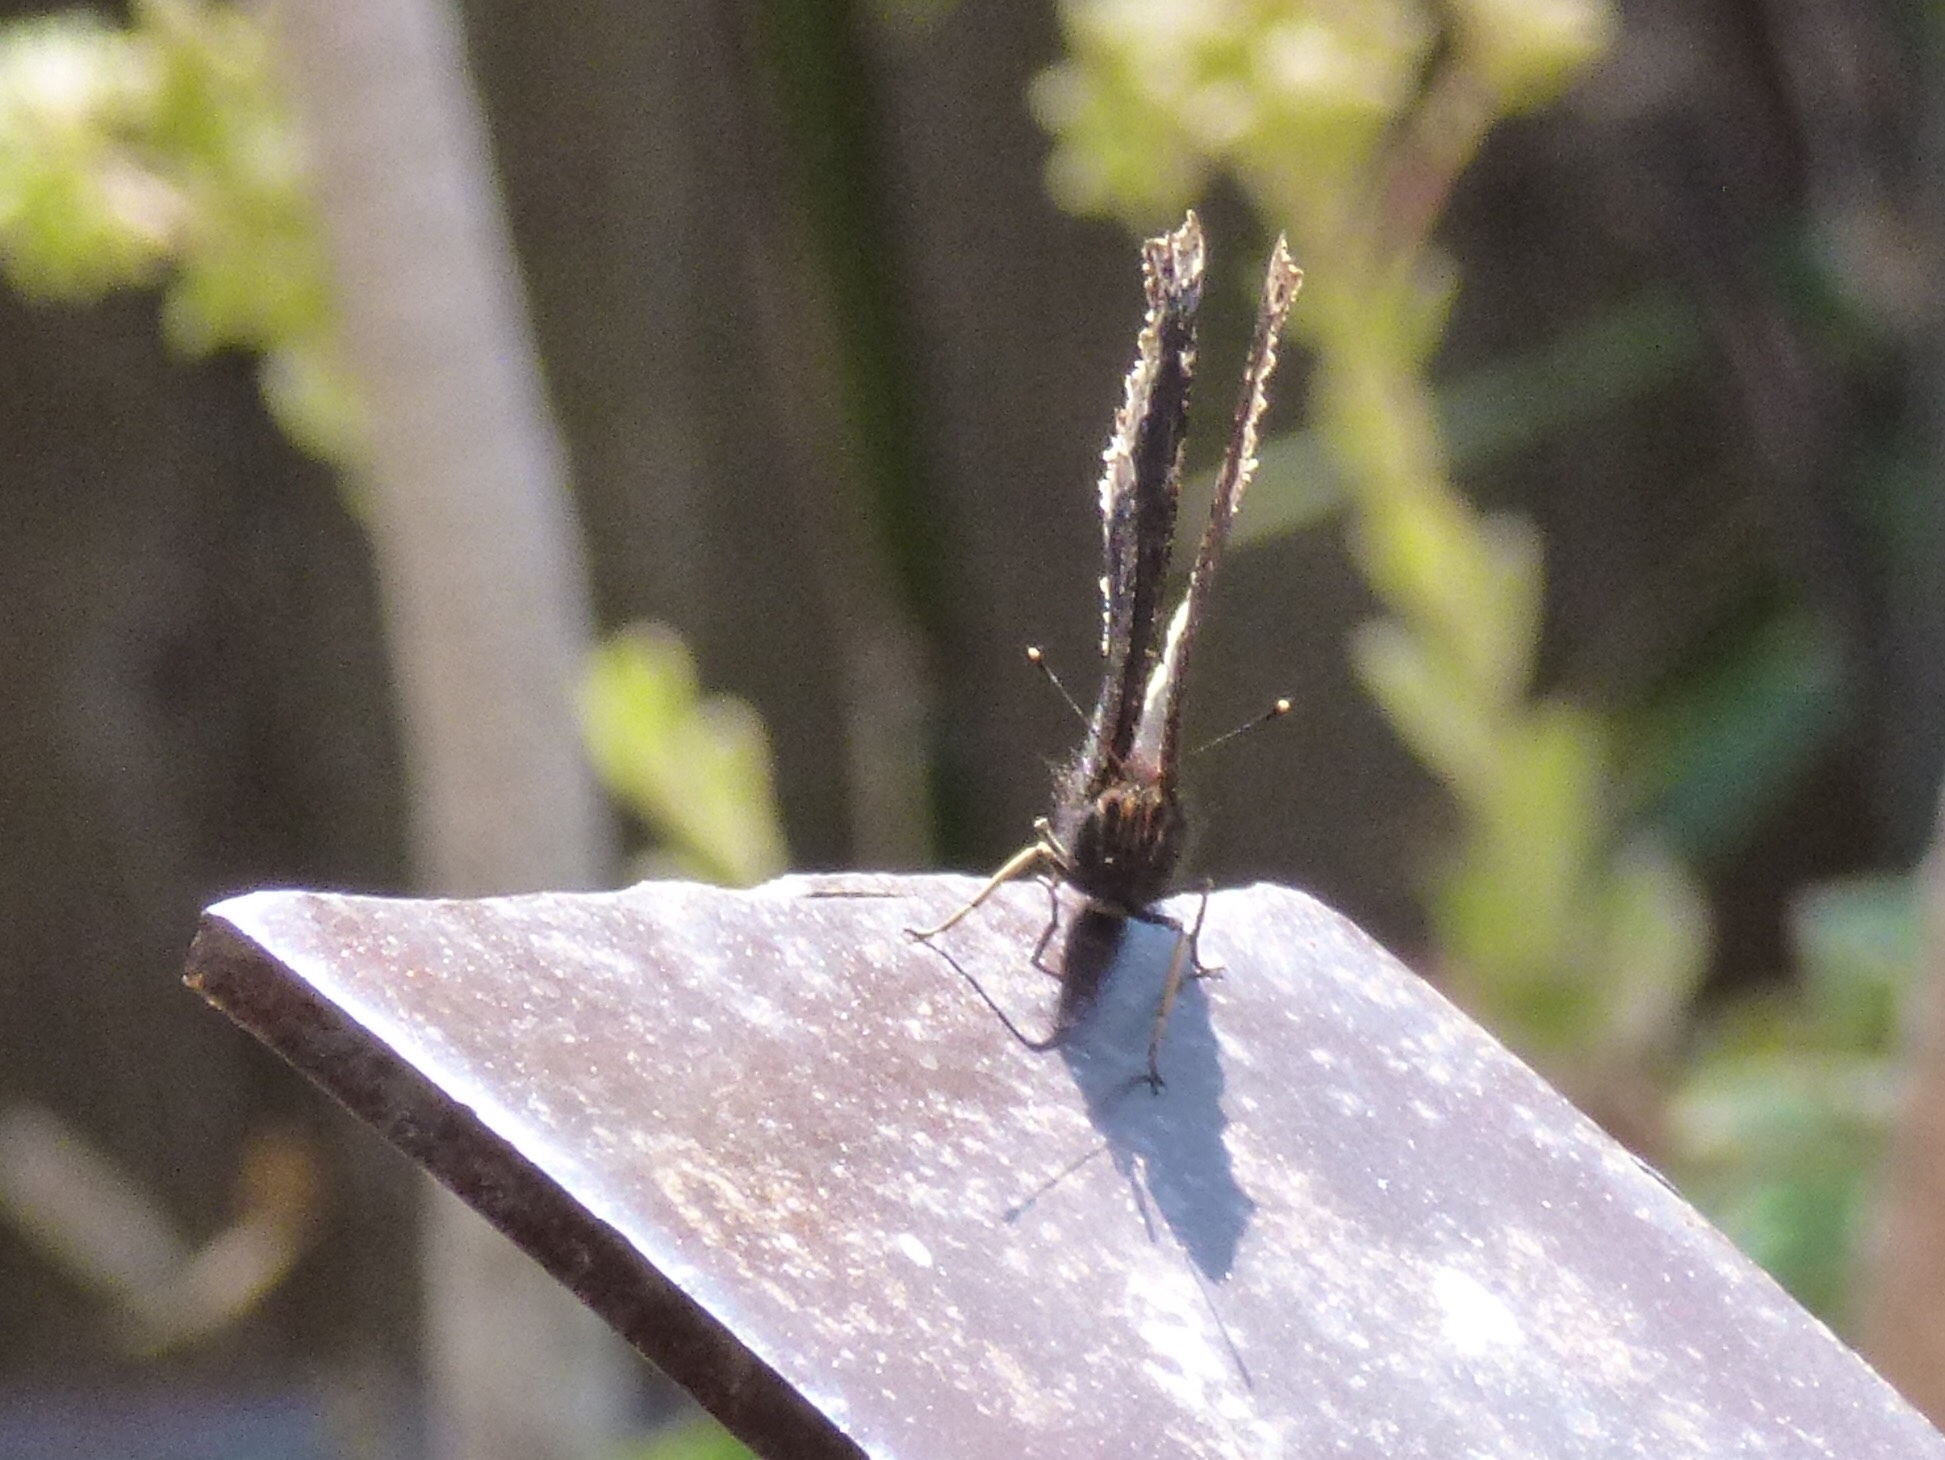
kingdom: Animalia
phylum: Arthropoda
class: Insecta
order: Lepidoptera
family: Nymphalidae
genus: Nymphalis
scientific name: Nymphalis antiopa
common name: Camberwell beauty
